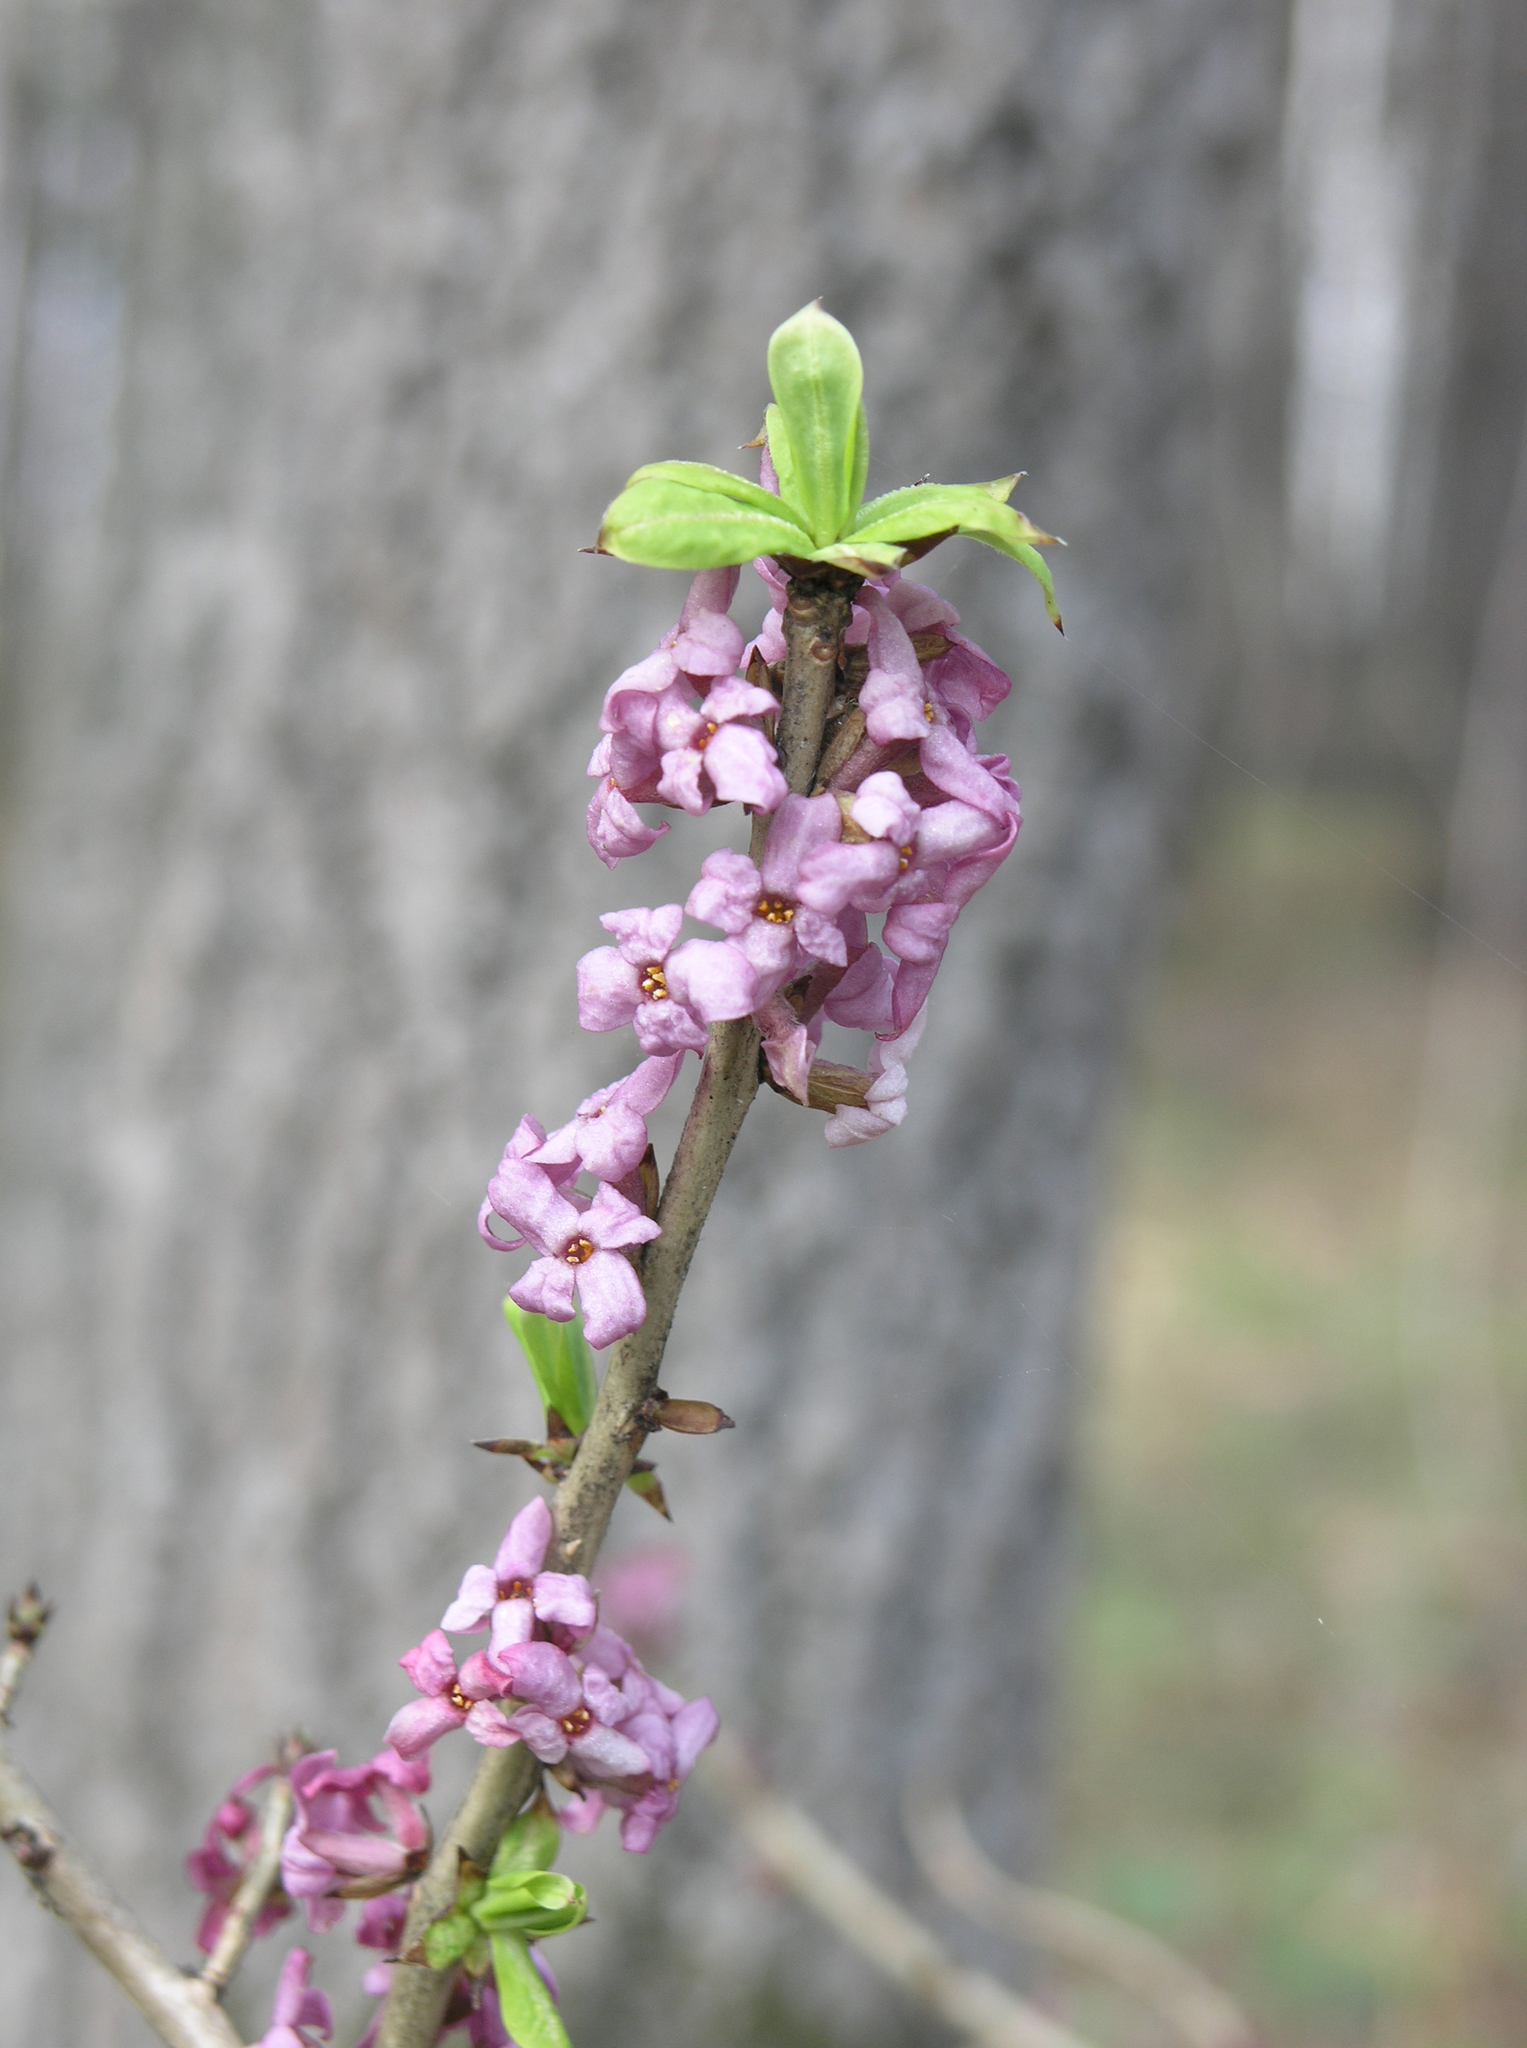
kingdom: Plantae
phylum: Tracheophyta
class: Magnoliopsida
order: Malvales
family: Thymelaeaceae
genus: Daphne
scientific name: Daphne mezereum
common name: Mezereon
